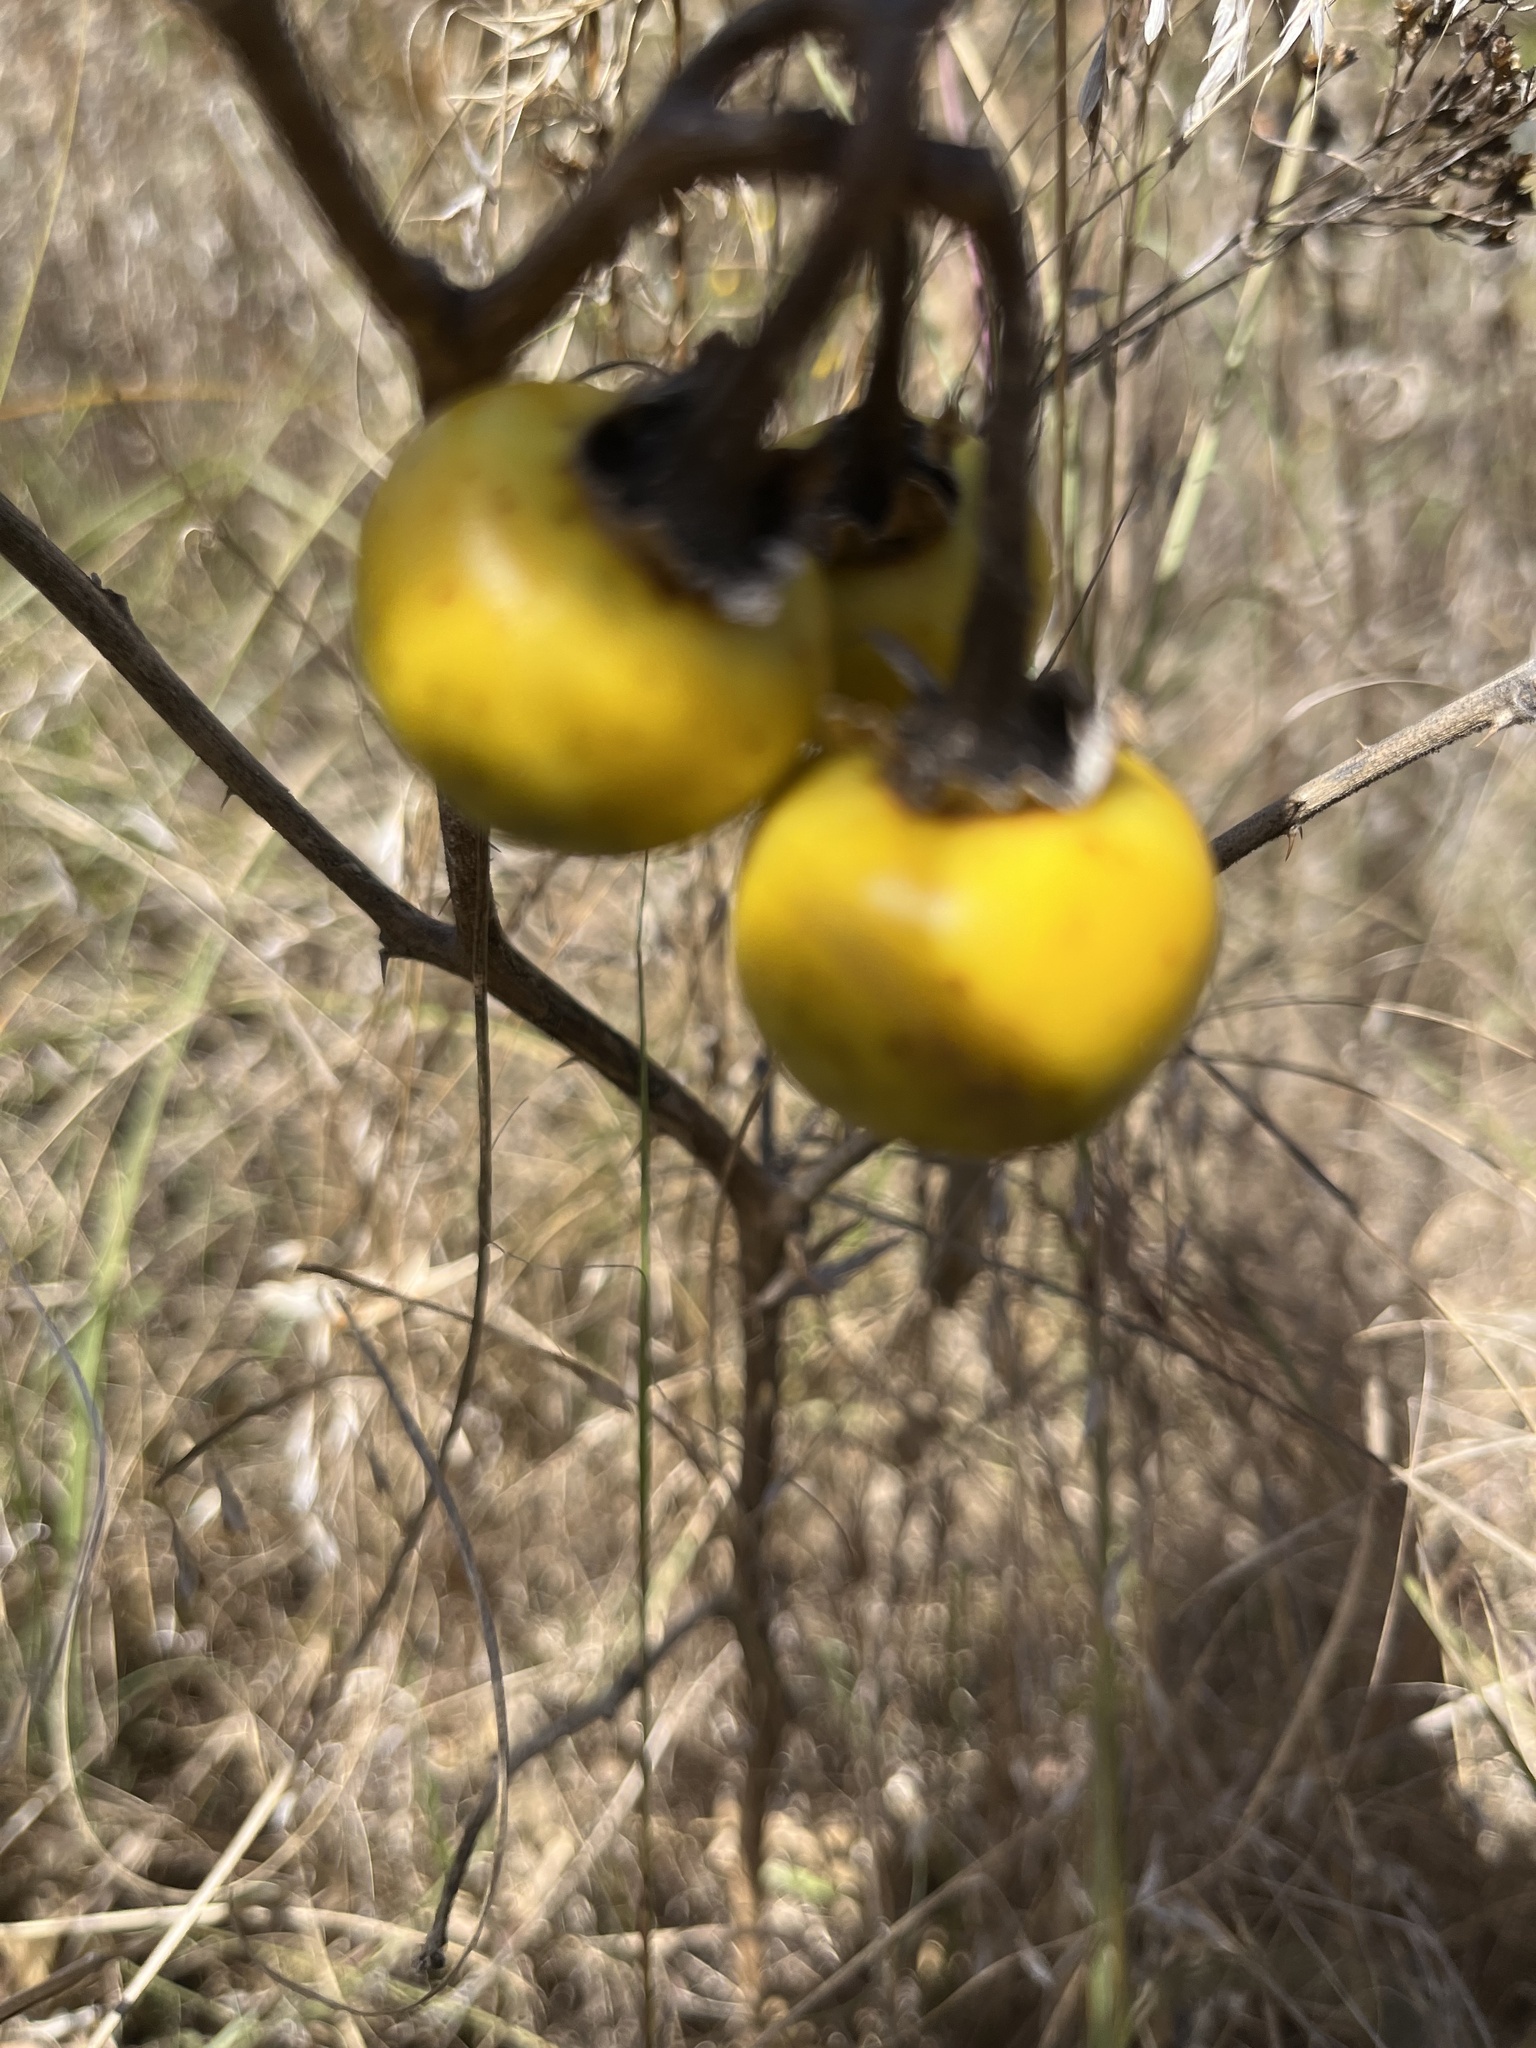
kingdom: Plantae
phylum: Tracheophyta
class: Magnoliopsida
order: Solanales
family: Solanaceae
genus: Solanum
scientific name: Solanum carolinense
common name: Horse-nettle
